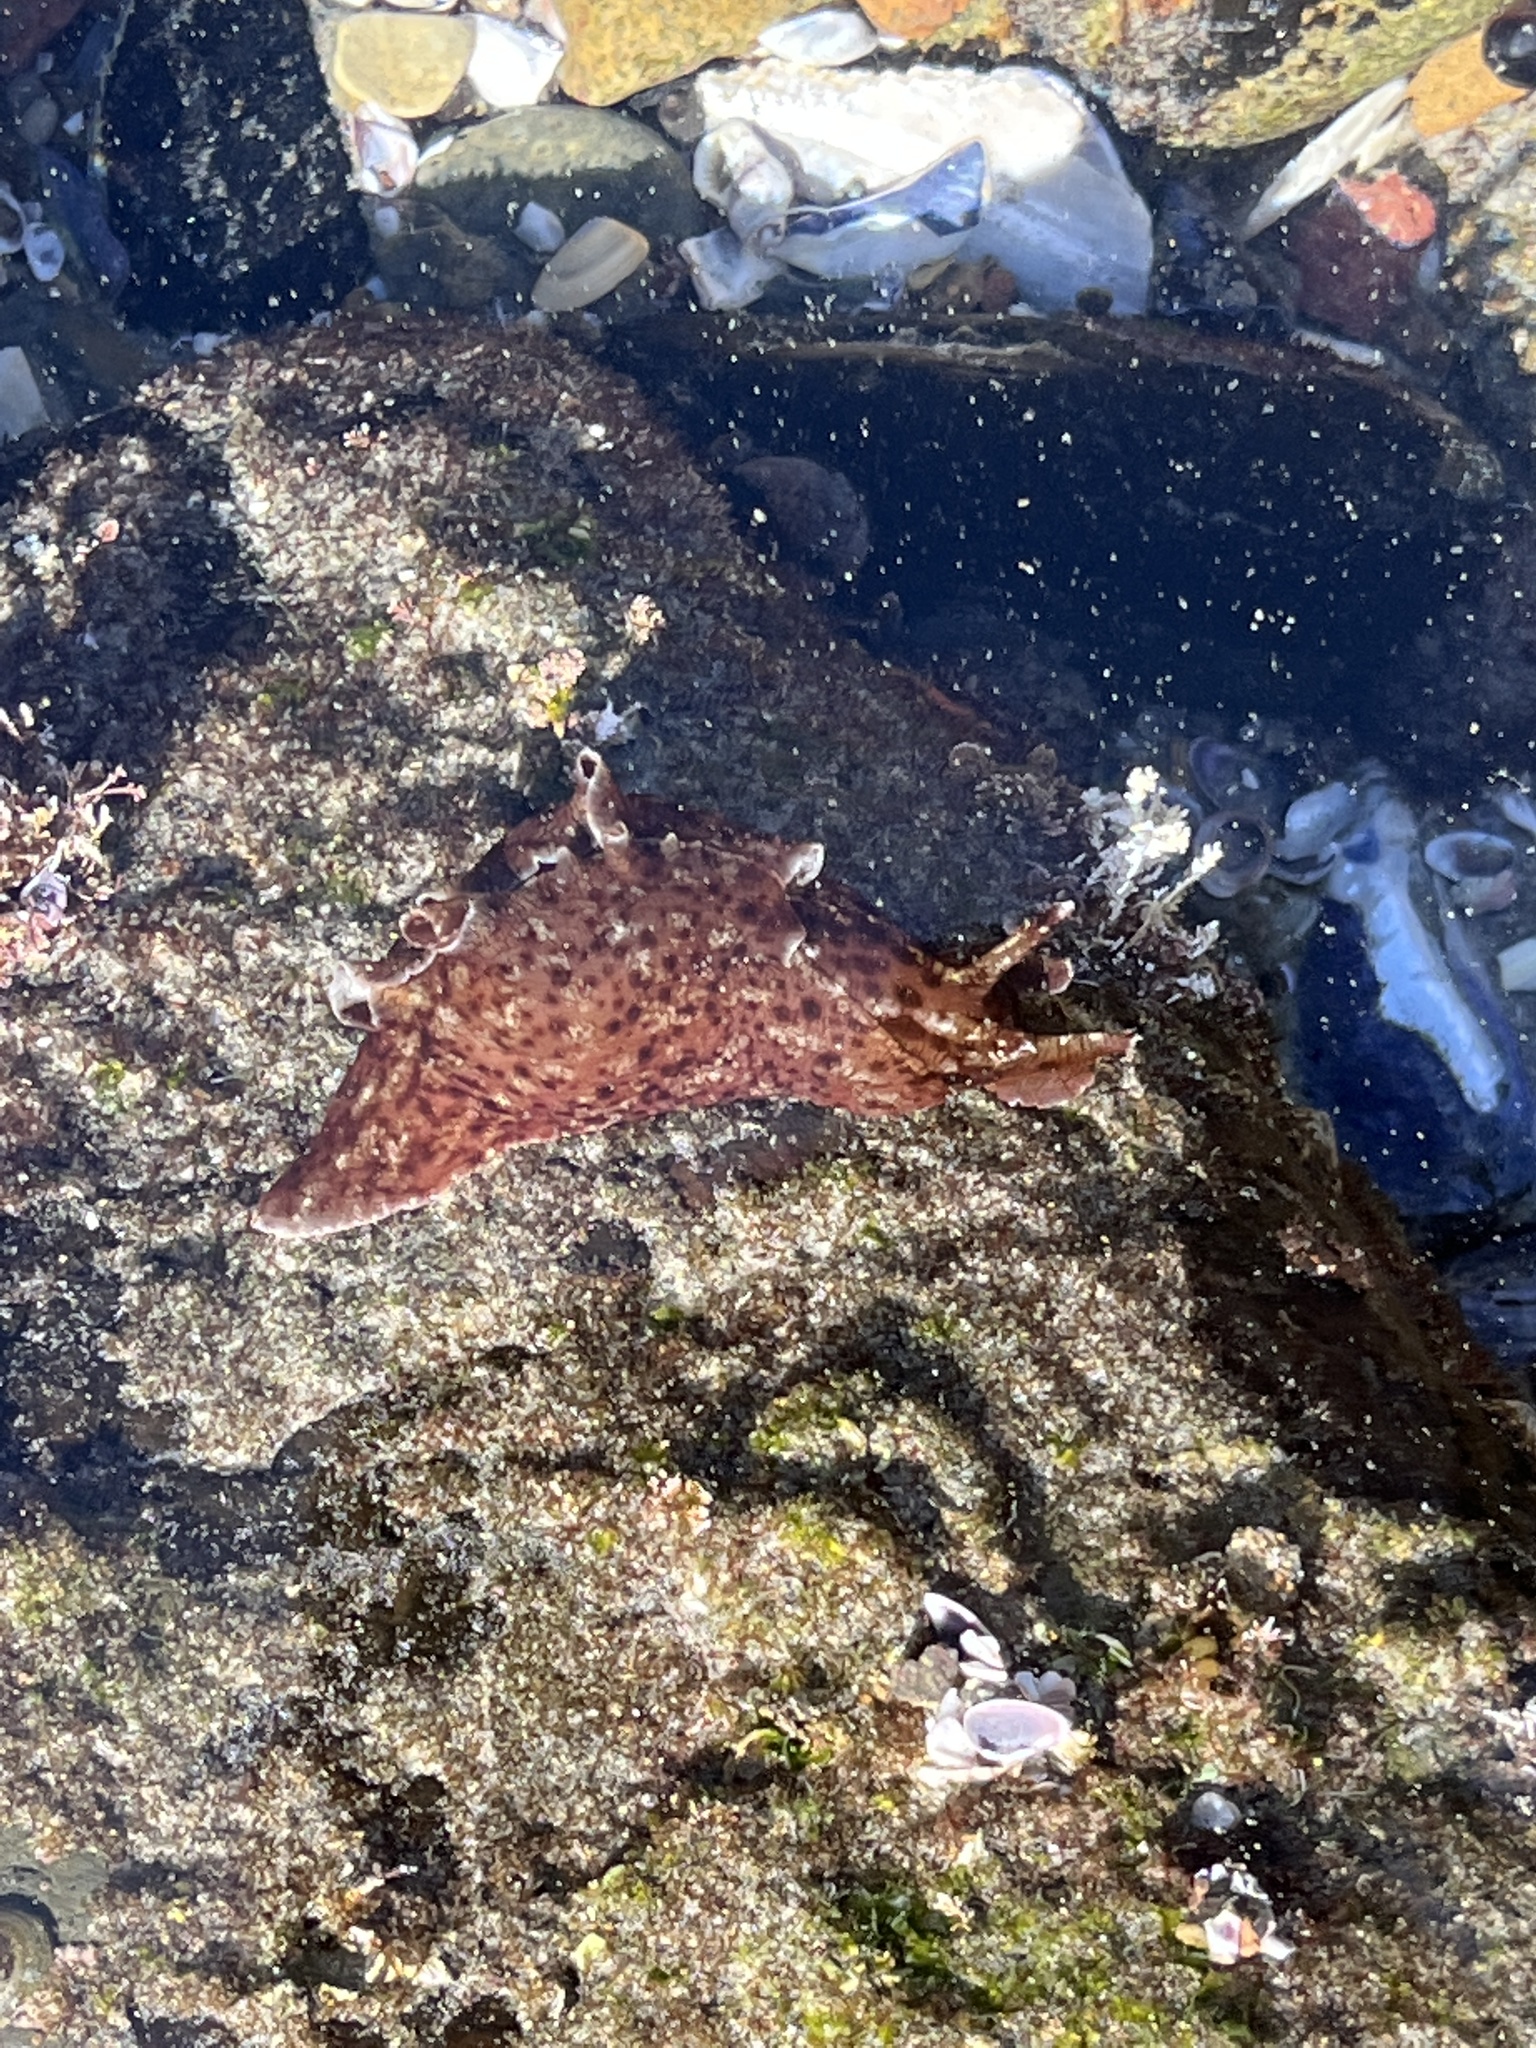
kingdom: Animalia
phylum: Mollusca
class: Gastropoda
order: Aplysiida
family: Aplysiidae
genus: Aplysia
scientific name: Aplysia californica
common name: California seahare
